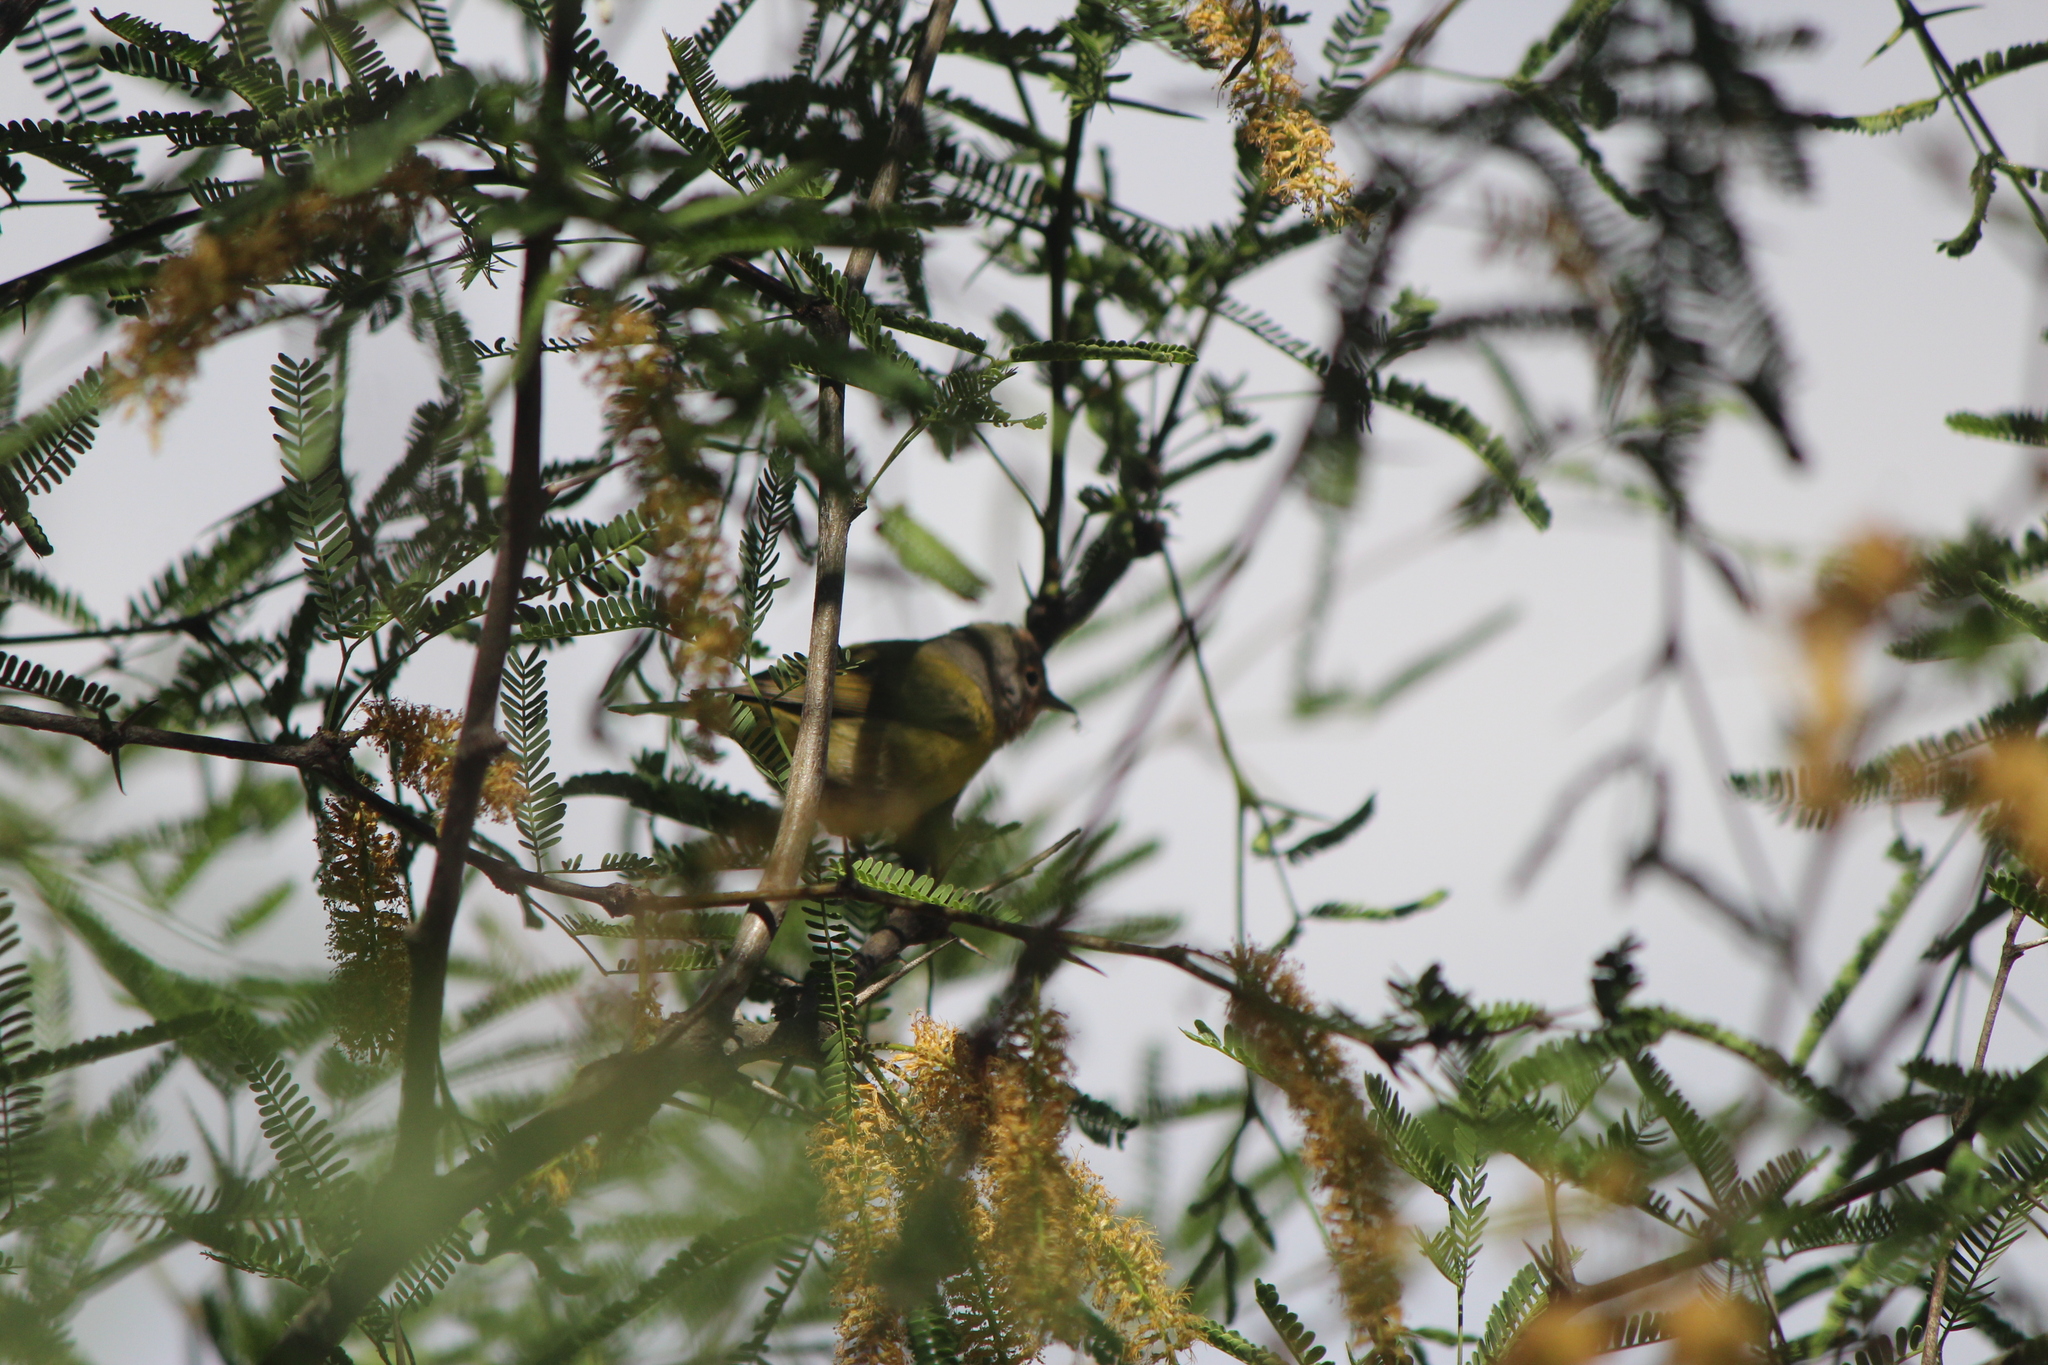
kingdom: Animalia
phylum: Chordata
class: Aves
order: Passeriformes
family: Parulidae
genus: Leiothlypis
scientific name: Leiothlypis celata
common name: Orange-crowned warbler
